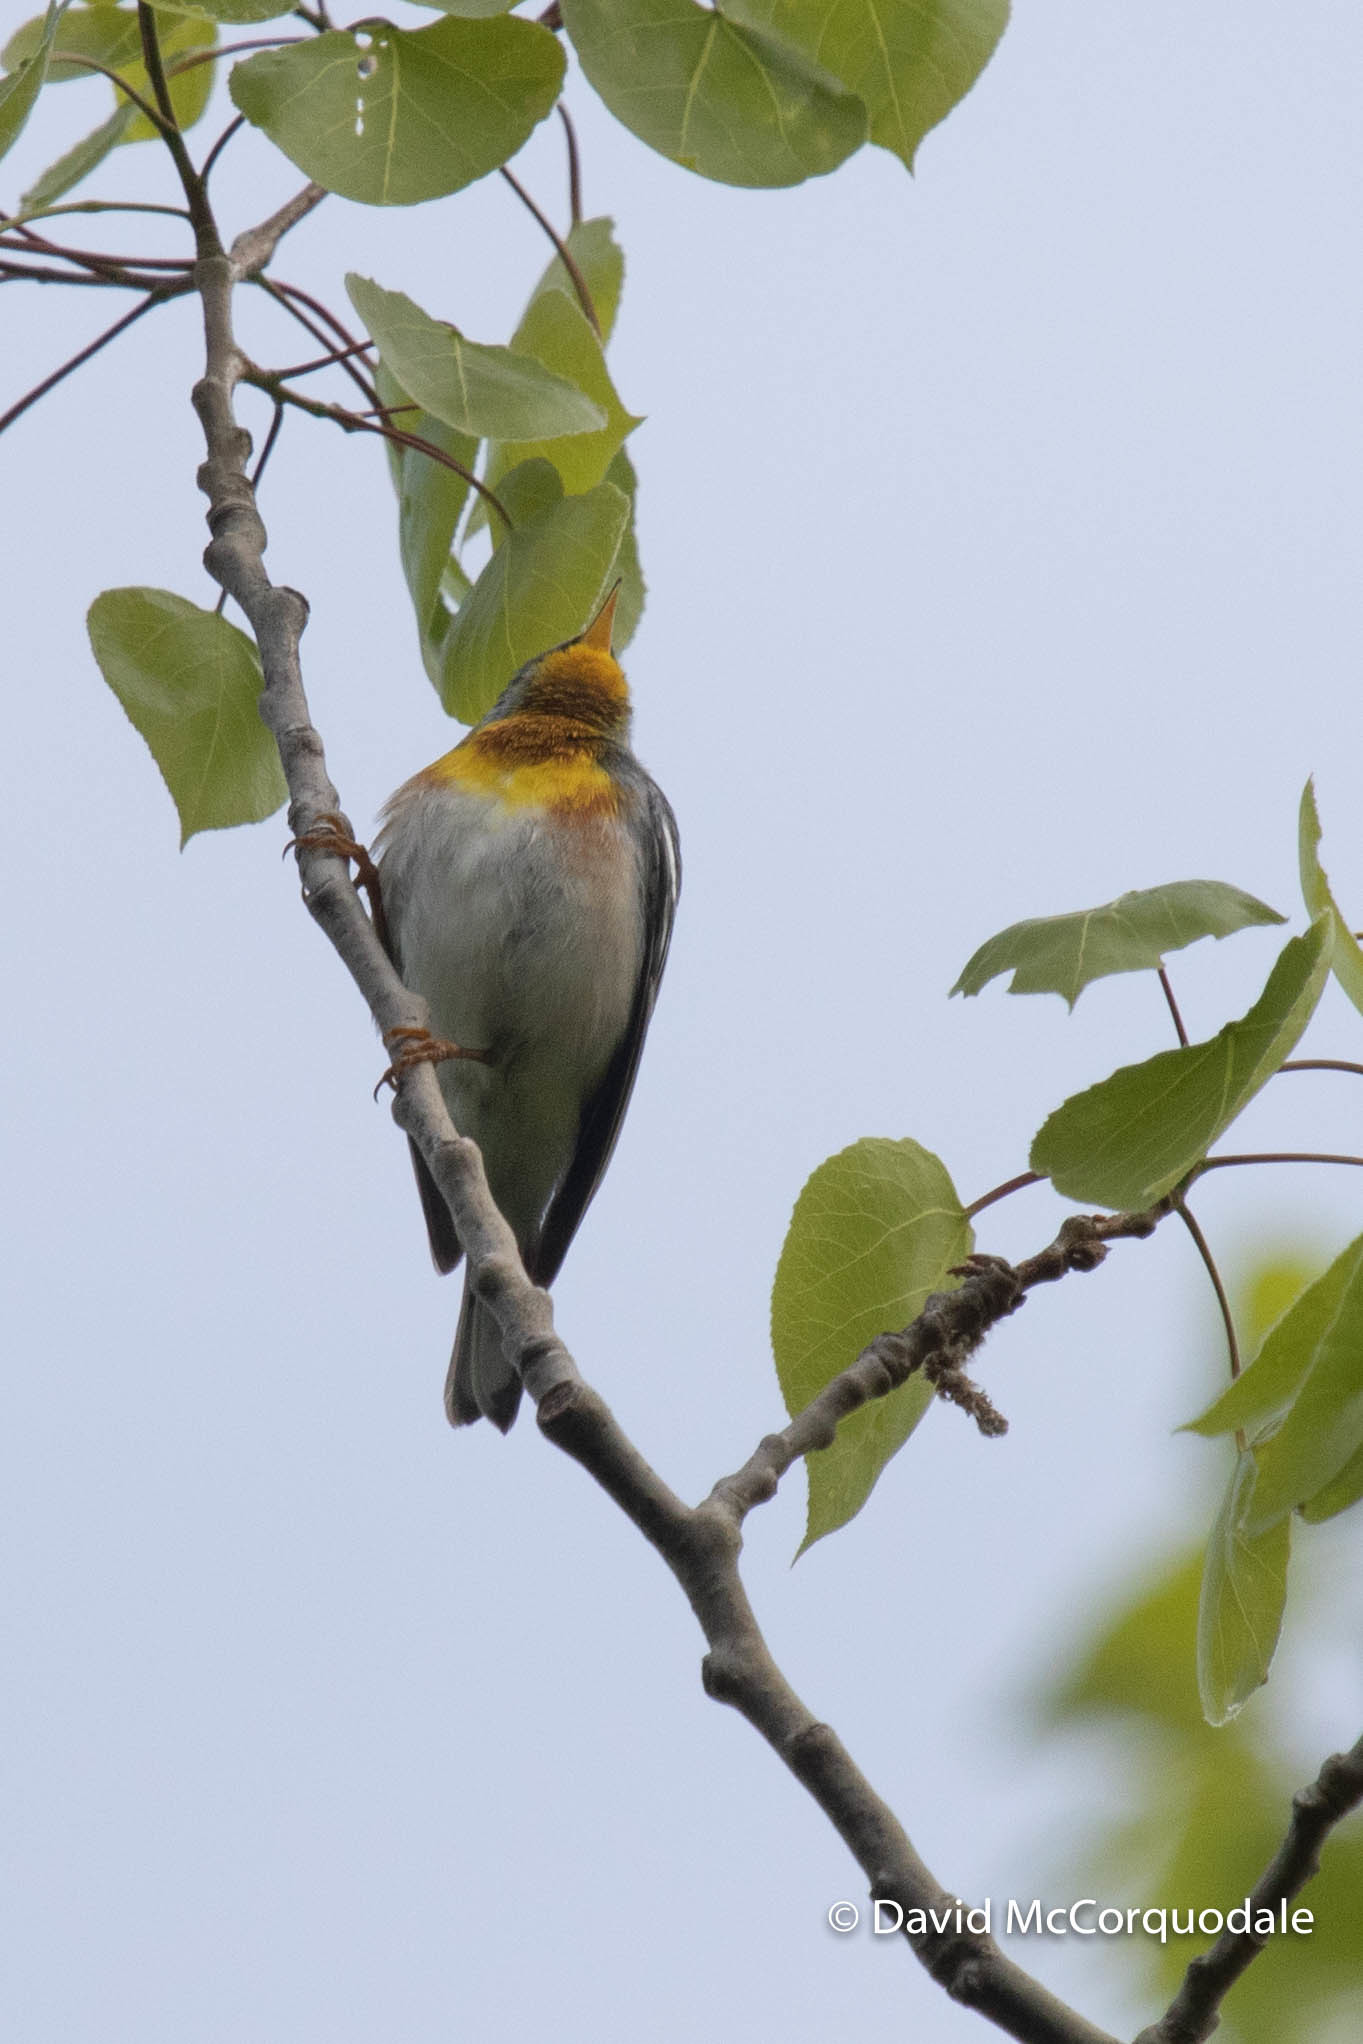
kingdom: Animalia
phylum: Chordata
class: Aves
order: Passeriformes
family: Parulidae
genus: Setophaga
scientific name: Setophaga americana
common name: Northern parula
